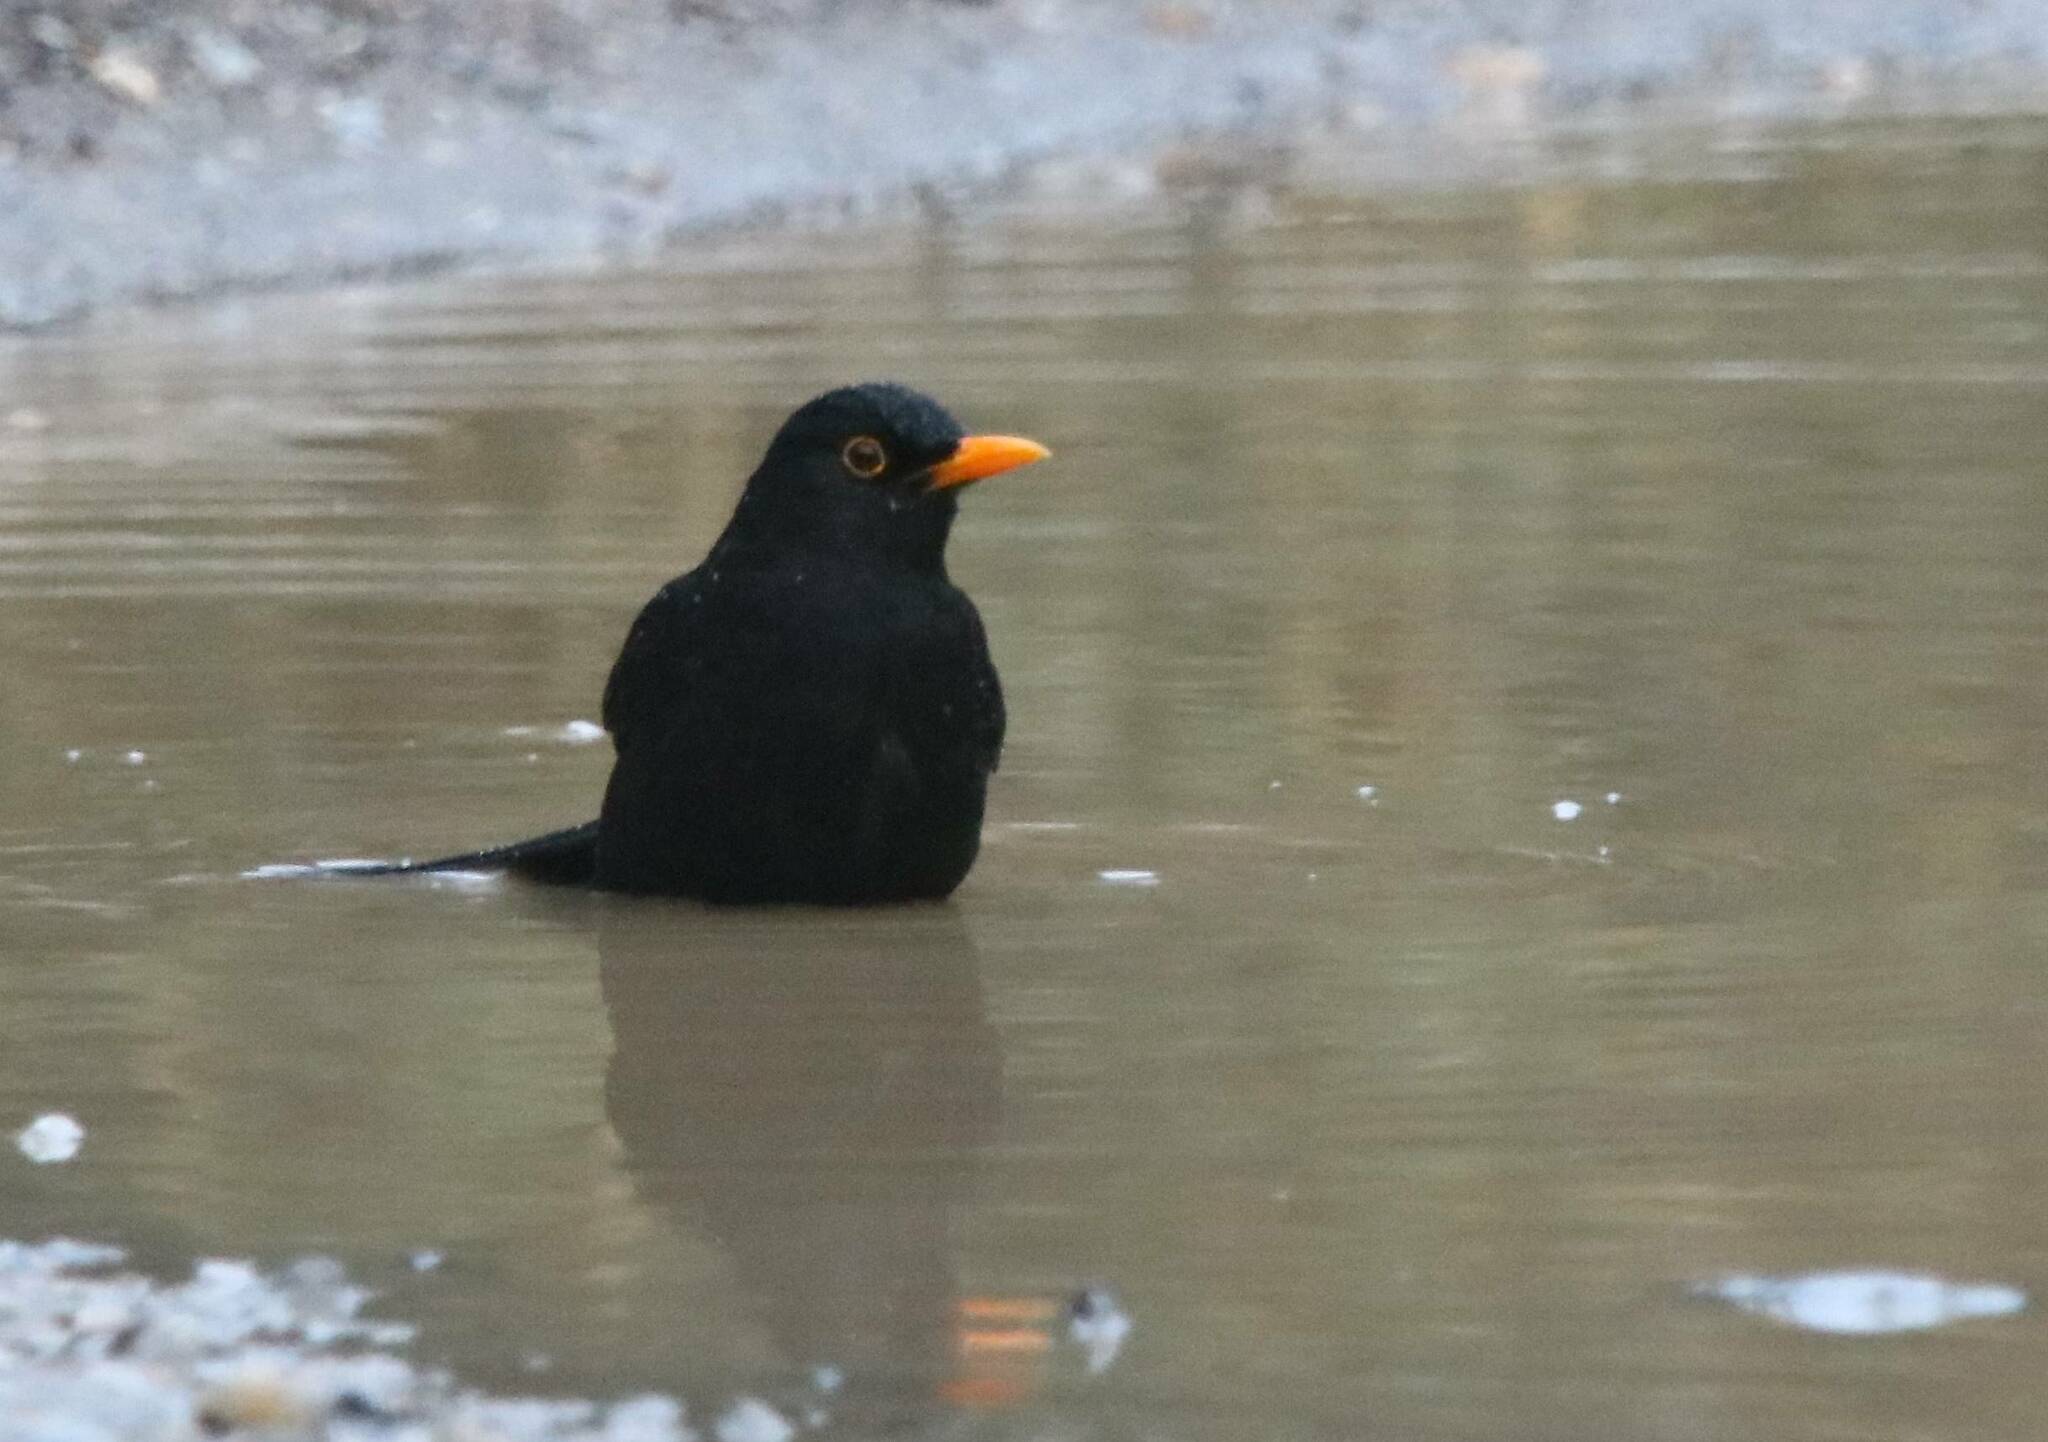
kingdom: Animalia
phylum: Chordata
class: Aves
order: Passeriformes
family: Turdidae
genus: Turdus
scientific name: Turdus merula
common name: Common blackbird
